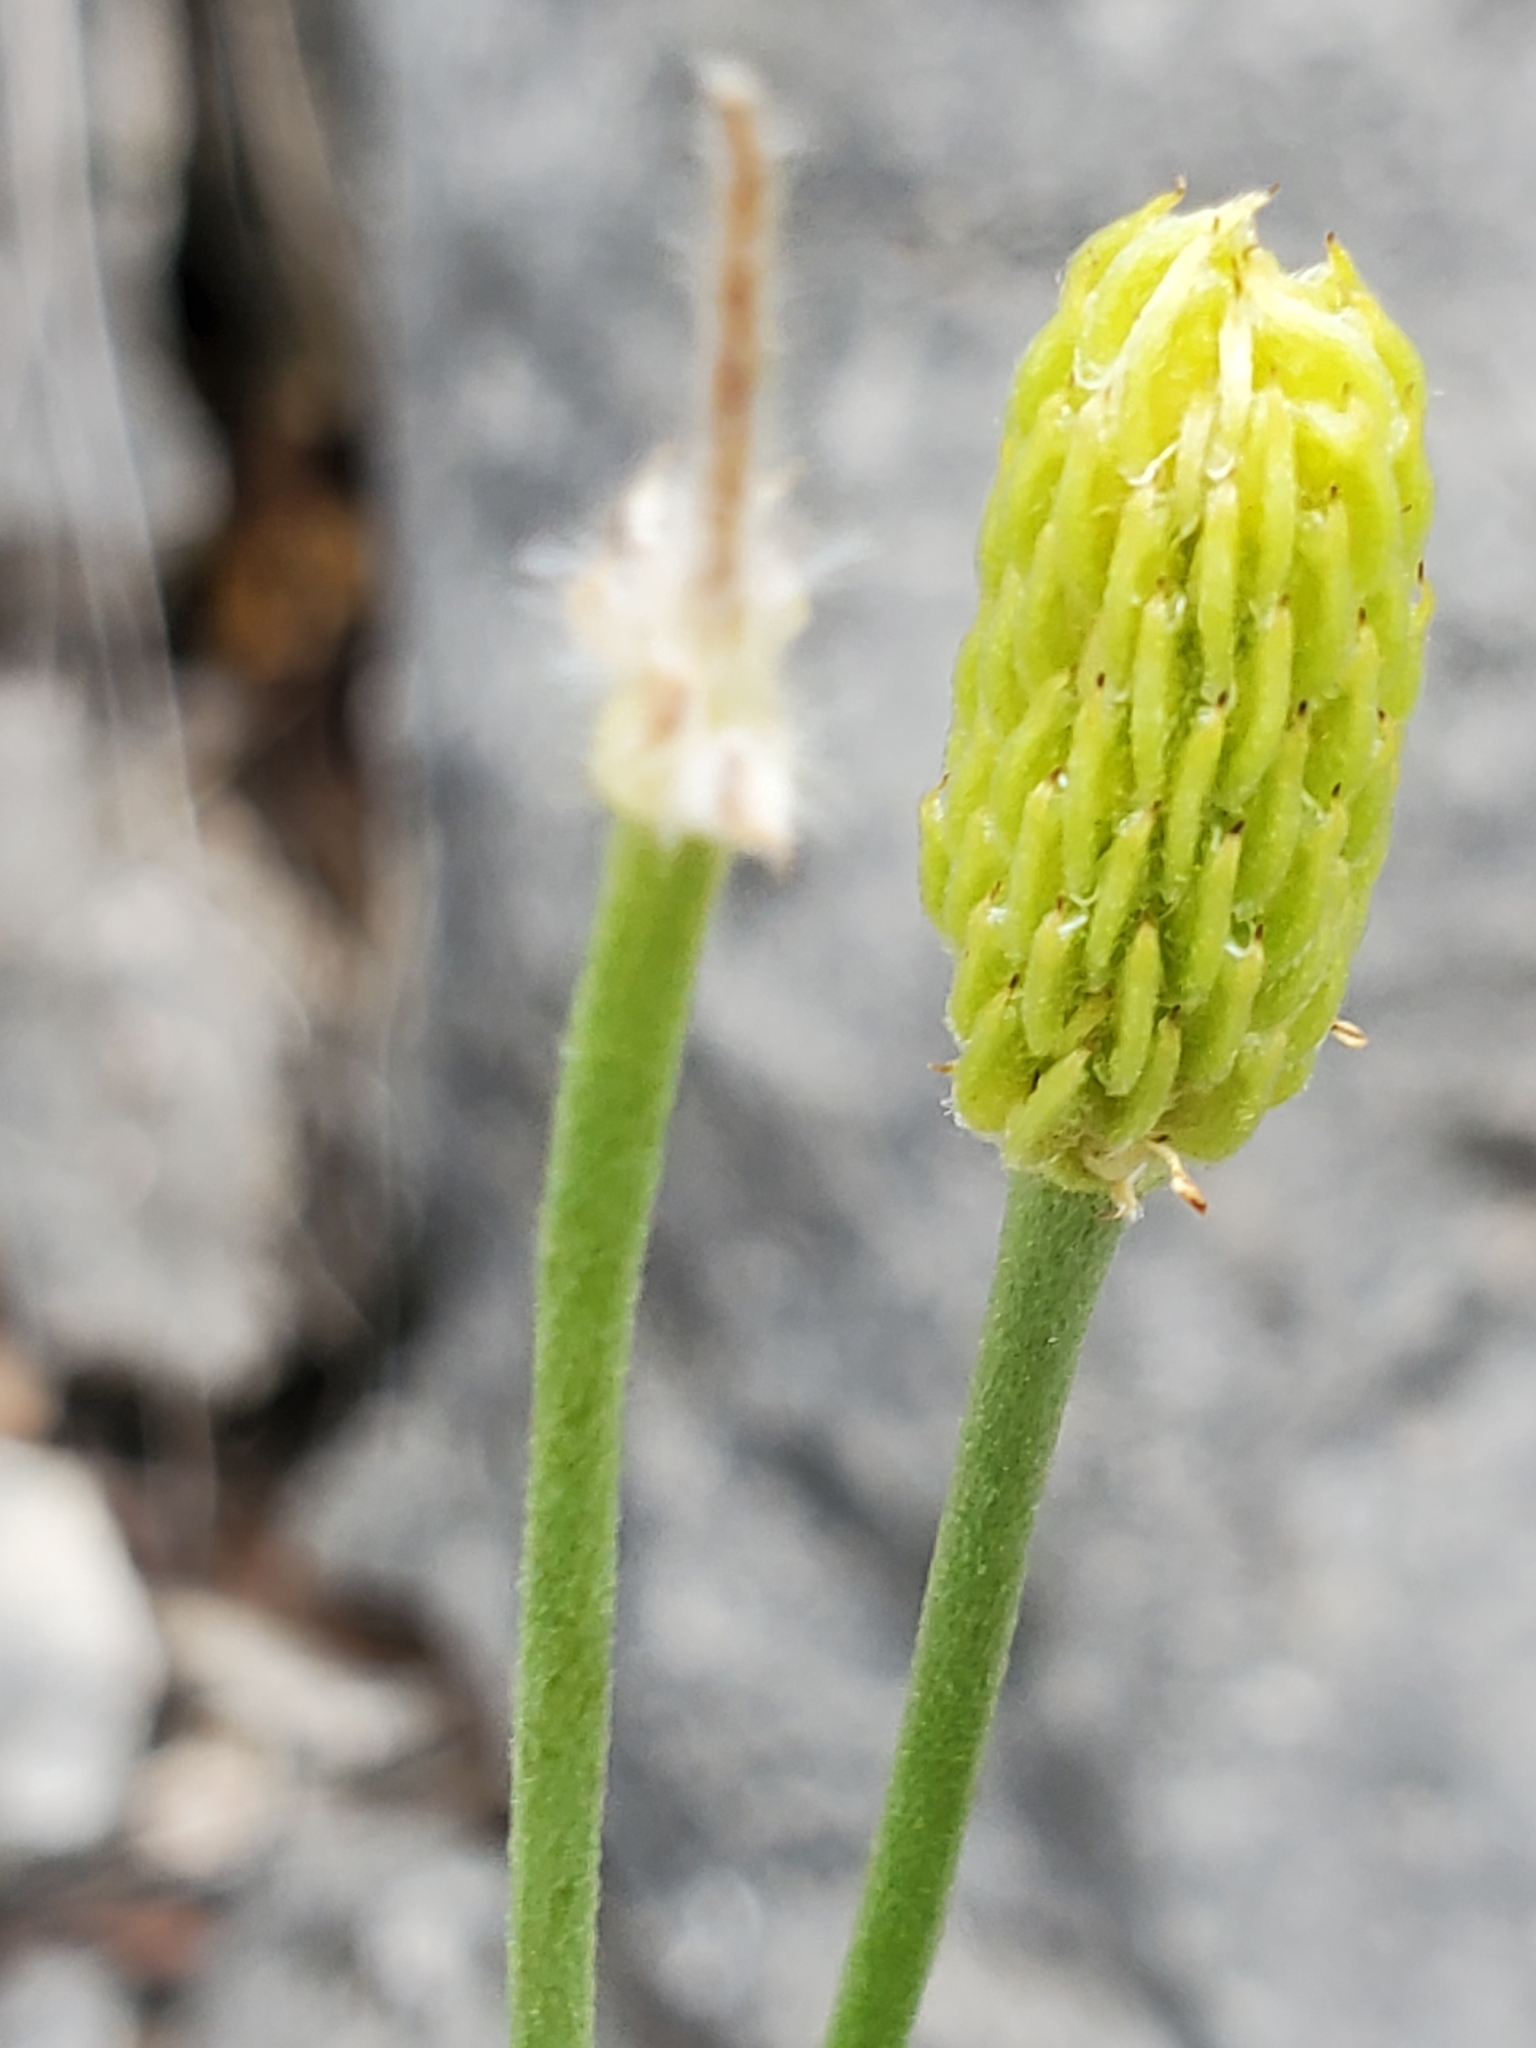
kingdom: Plantae
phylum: Tracheophyta
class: Magnoliopsida
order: Ranunculales
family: Ranunculaceae
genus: Anemone
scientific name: Anemone edwardsiana
